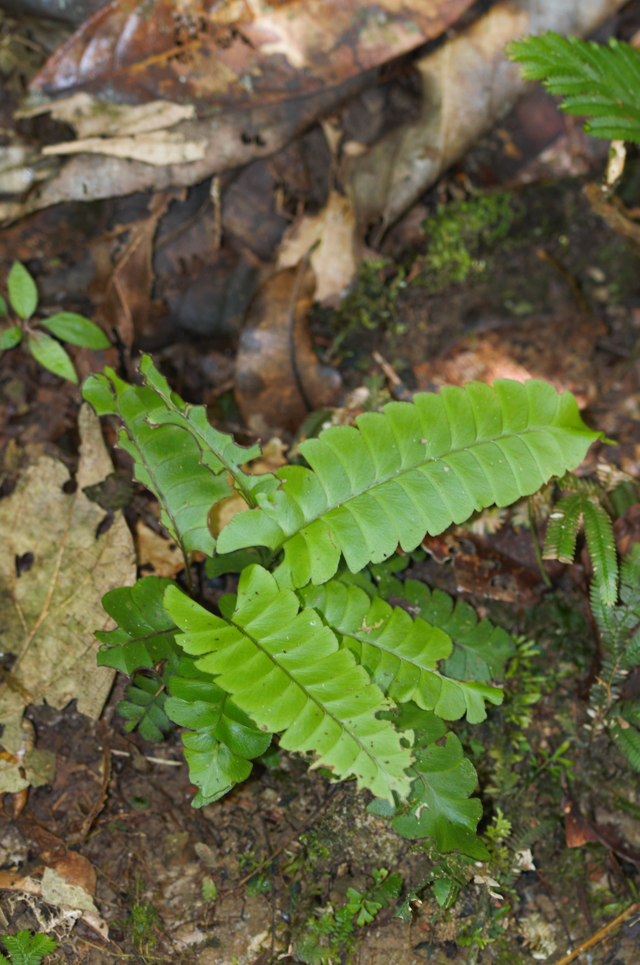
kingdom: Plantae
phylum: Tracheophyta
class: Polypodiopsida
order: Polypodiales
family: Lindsaeaceae
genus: Lindsaea
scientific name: Lindsaea lancea
